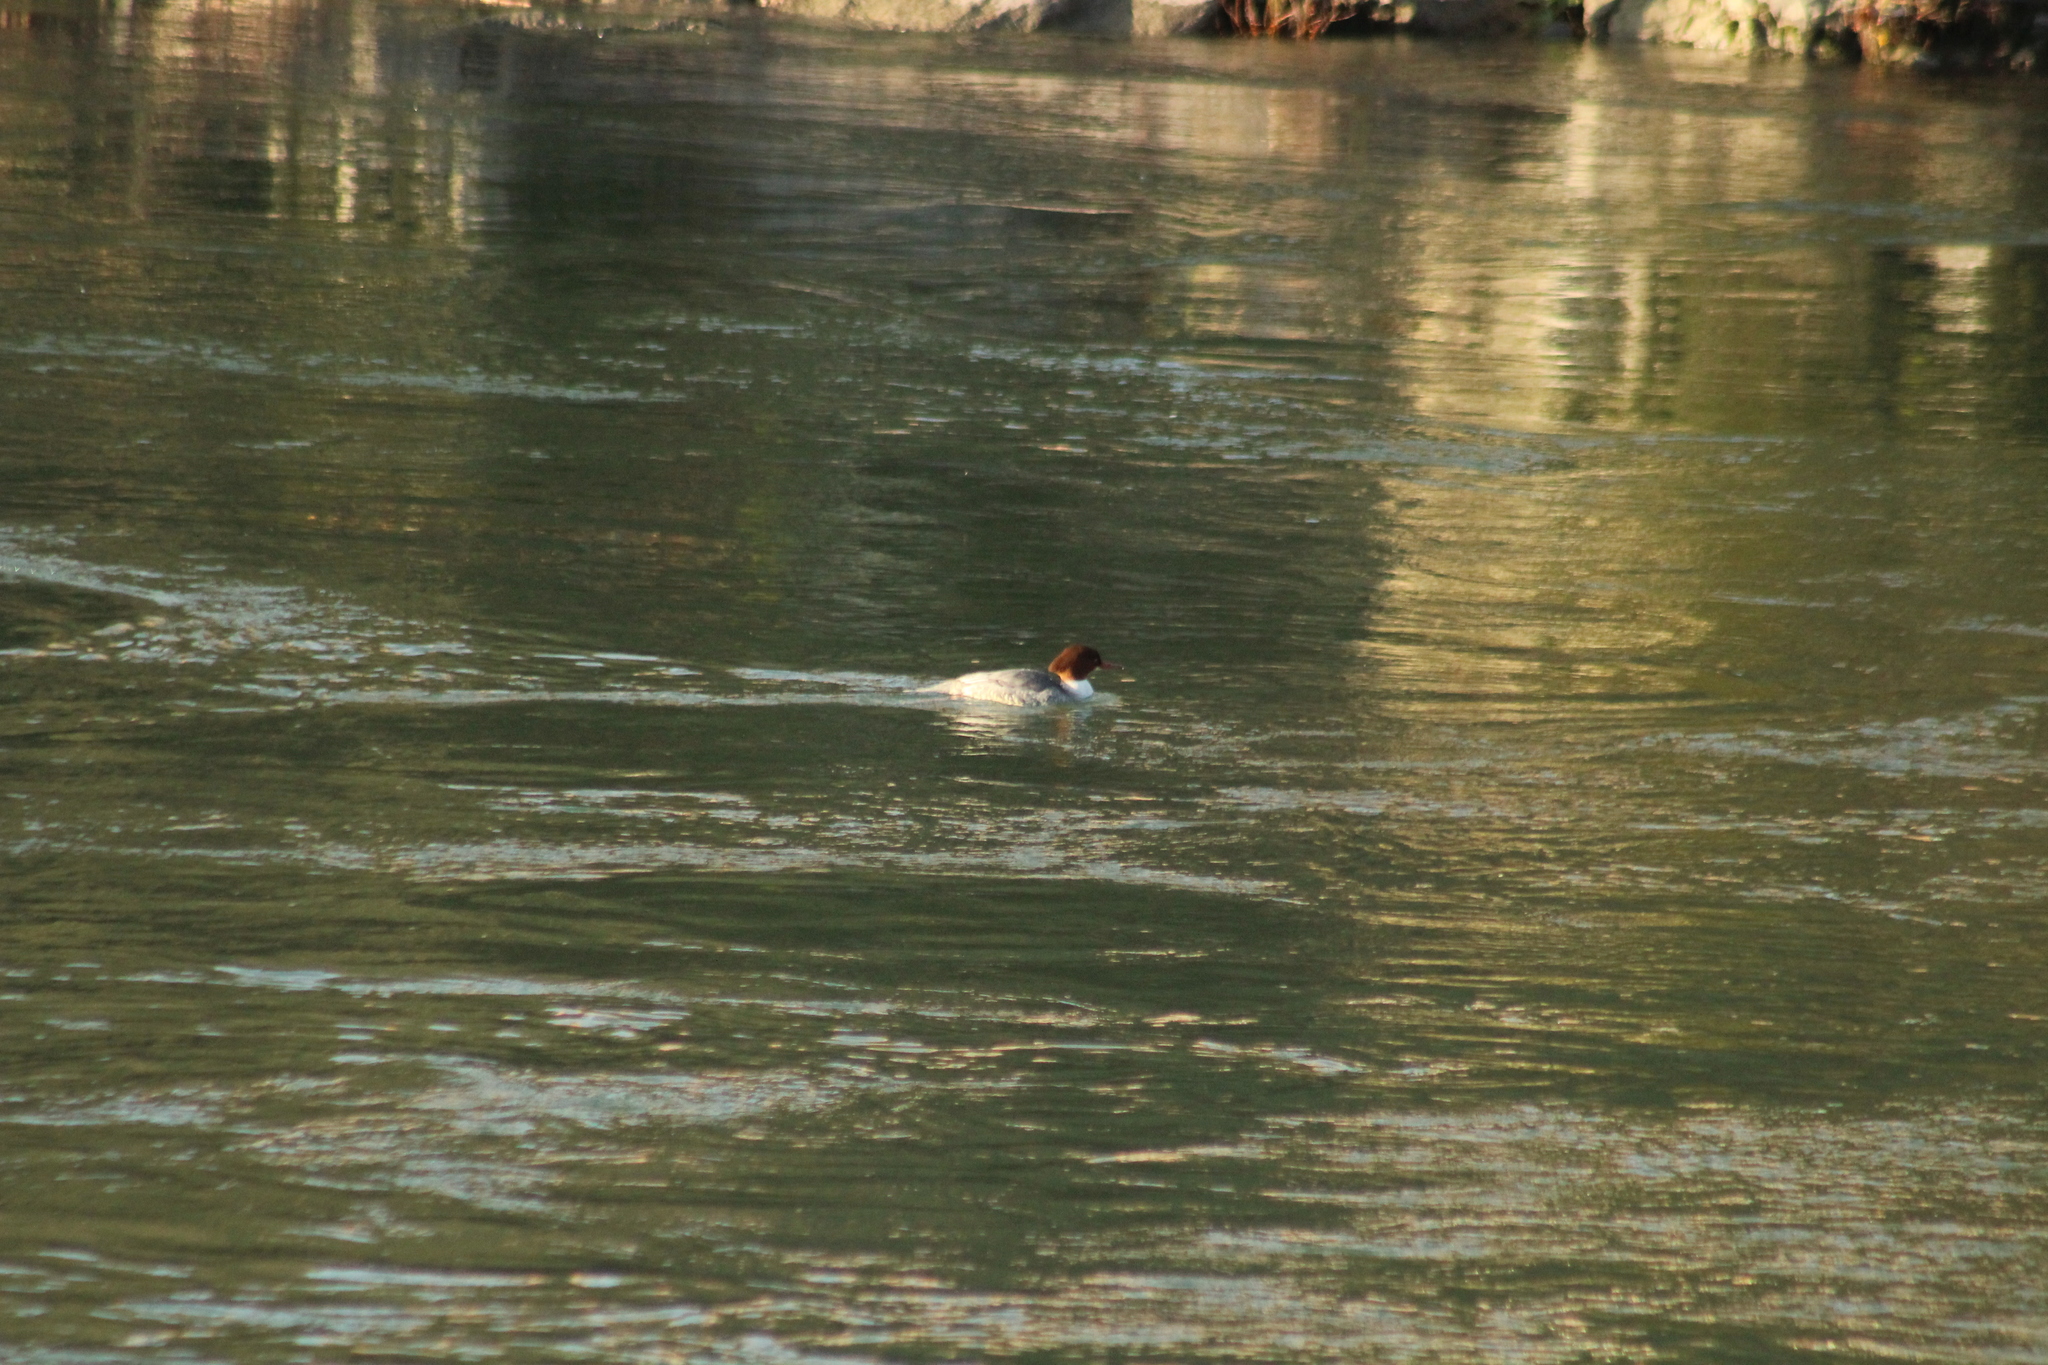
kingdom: Animalia
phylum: Chordata
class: Aves
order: Anseriformes
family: Anatidae
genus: Mergus
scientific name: Mergus merganser
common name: Common merganser
